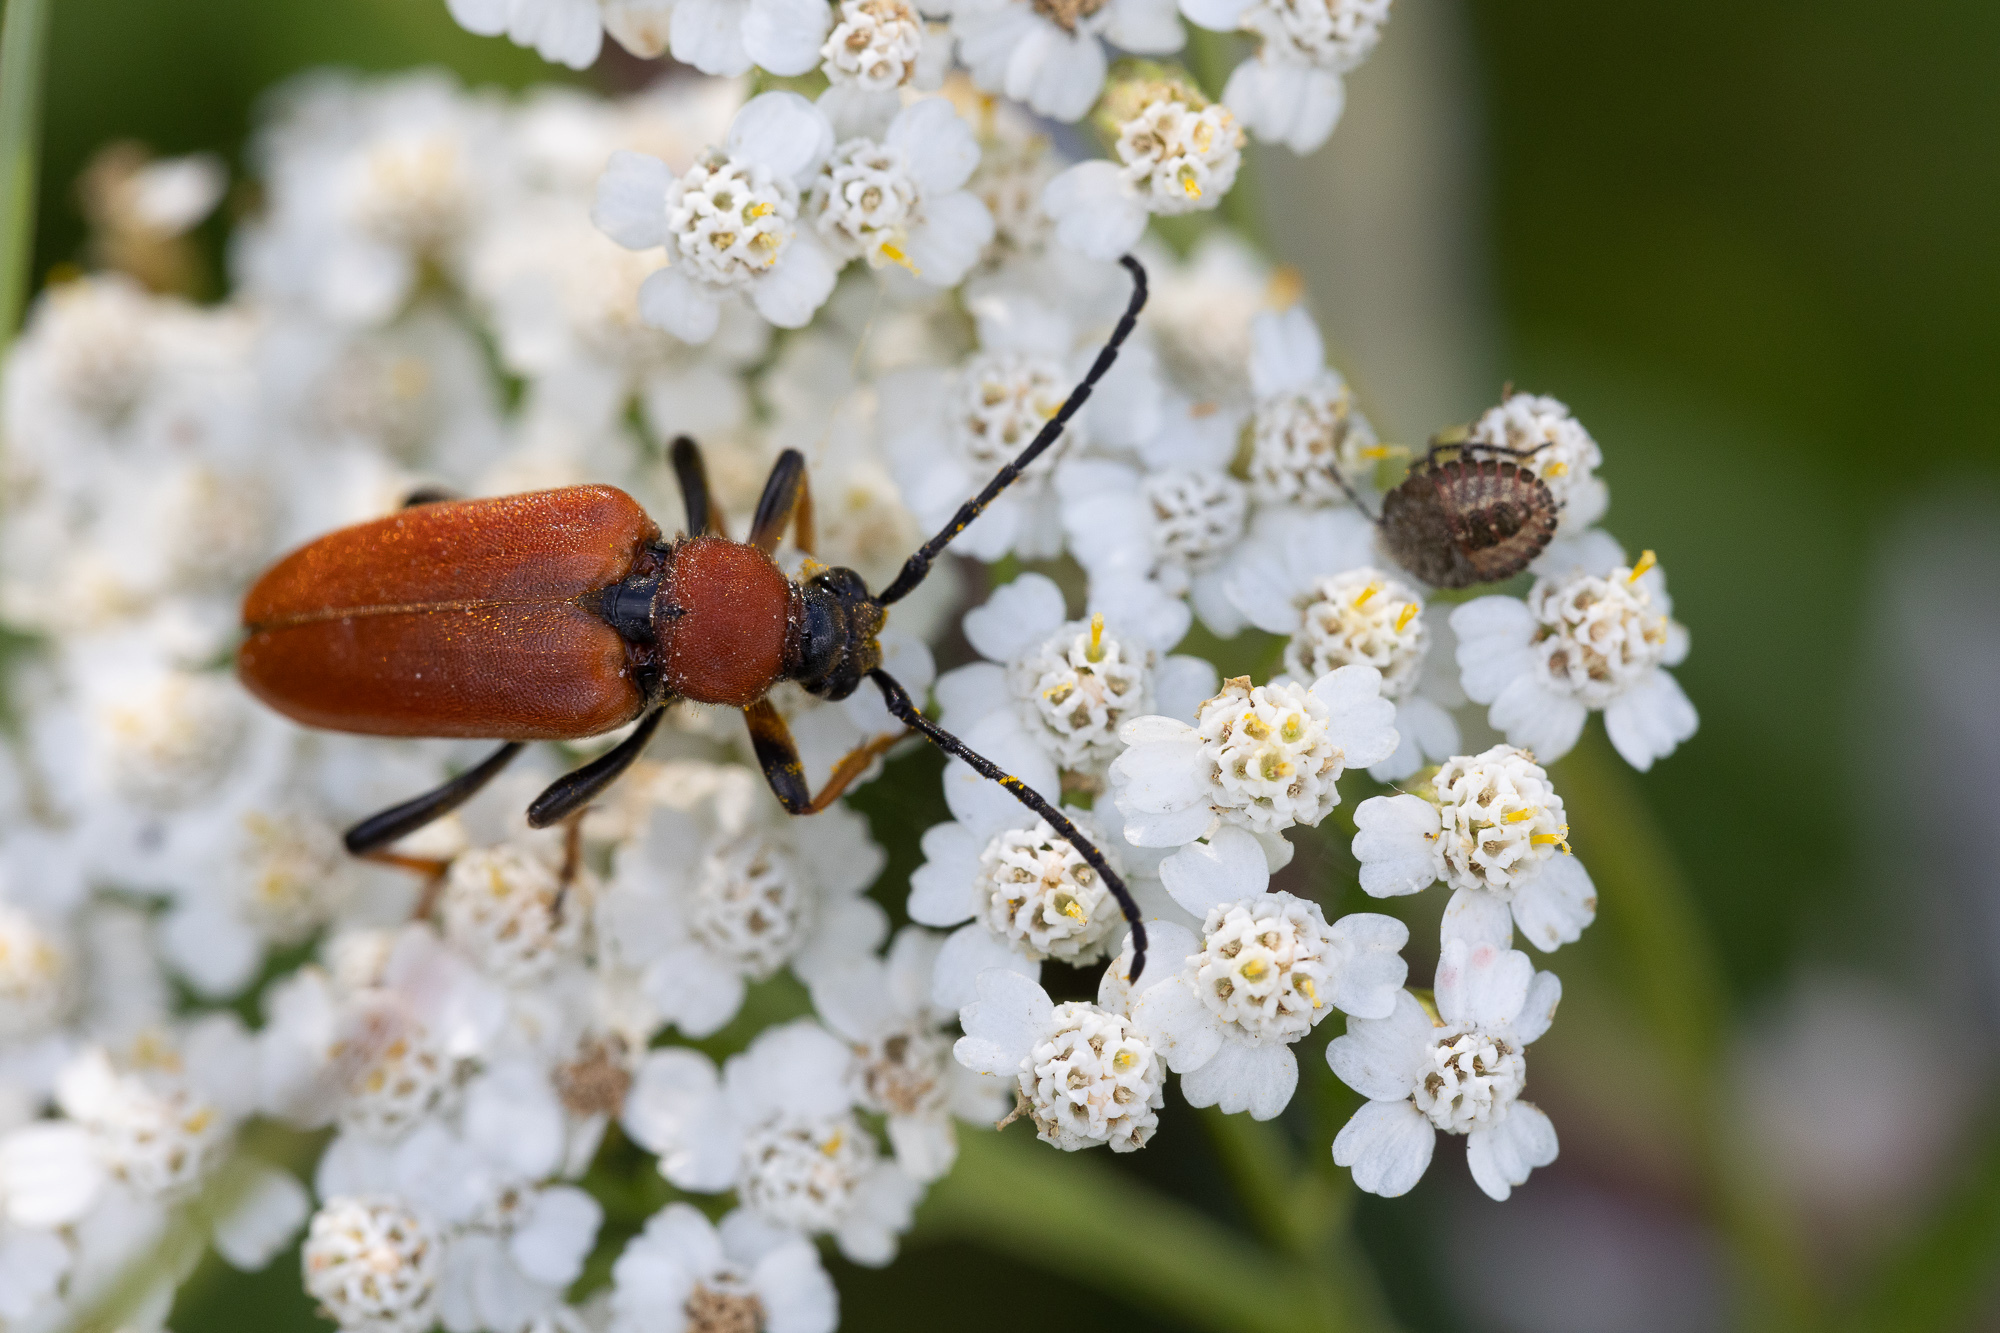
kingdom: Animalia
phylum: Arthropoda
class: Insecta
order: Coleoptera
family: Cerambycidae
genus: Stictoleptura
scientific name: Stictoleptura rubra
